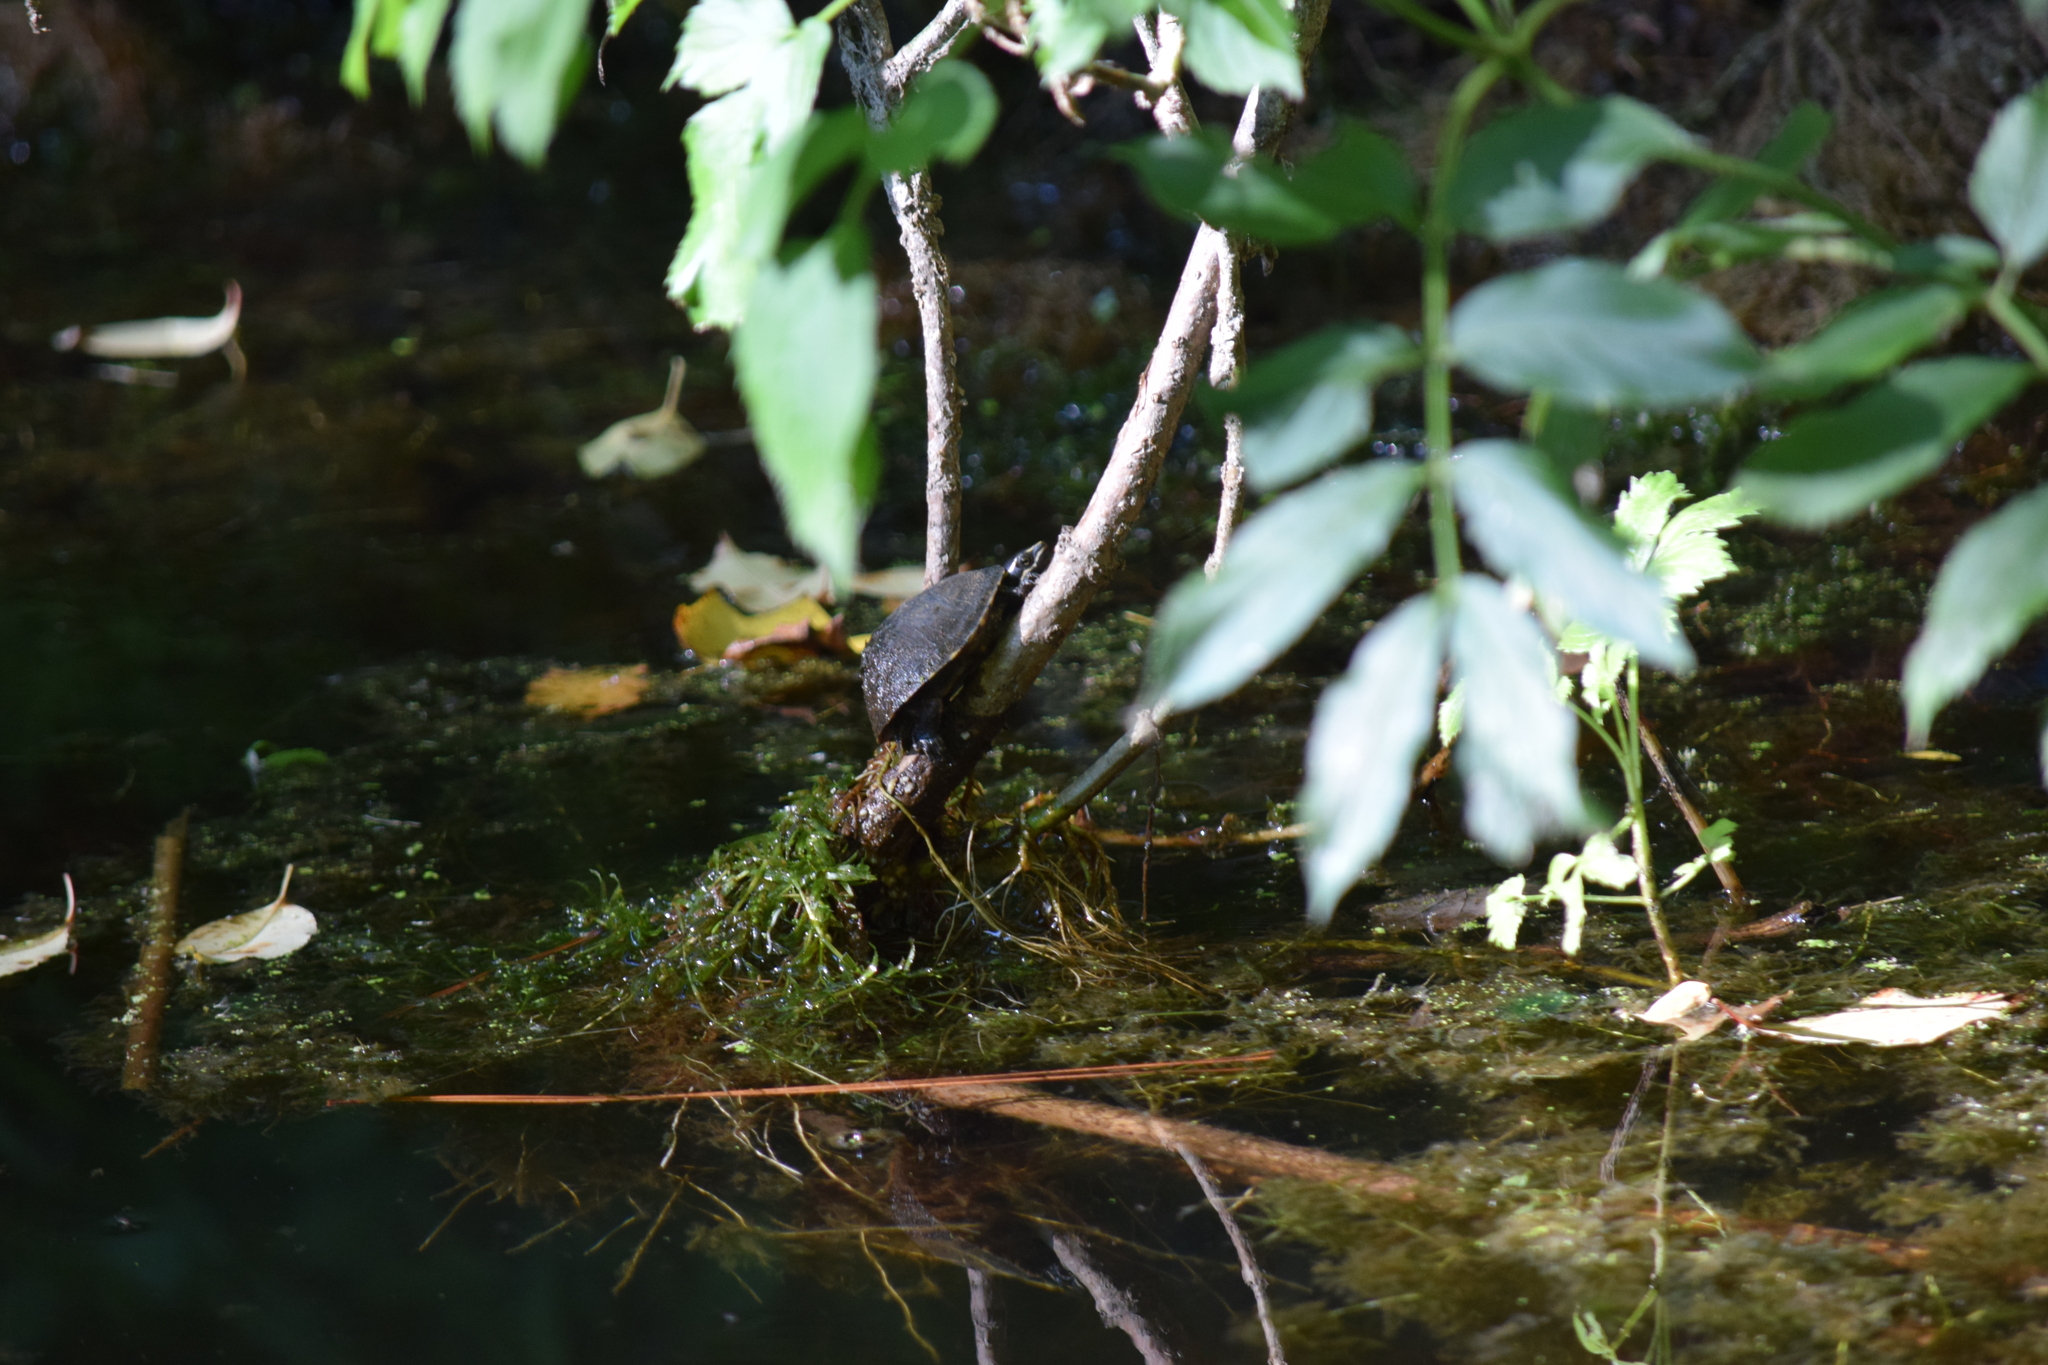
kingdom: Animalia
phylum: Chordata
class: Testudines
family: Kinosternidae
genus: Sternotherus
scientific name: Sternotherus odoratus
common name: Common musk turtle
